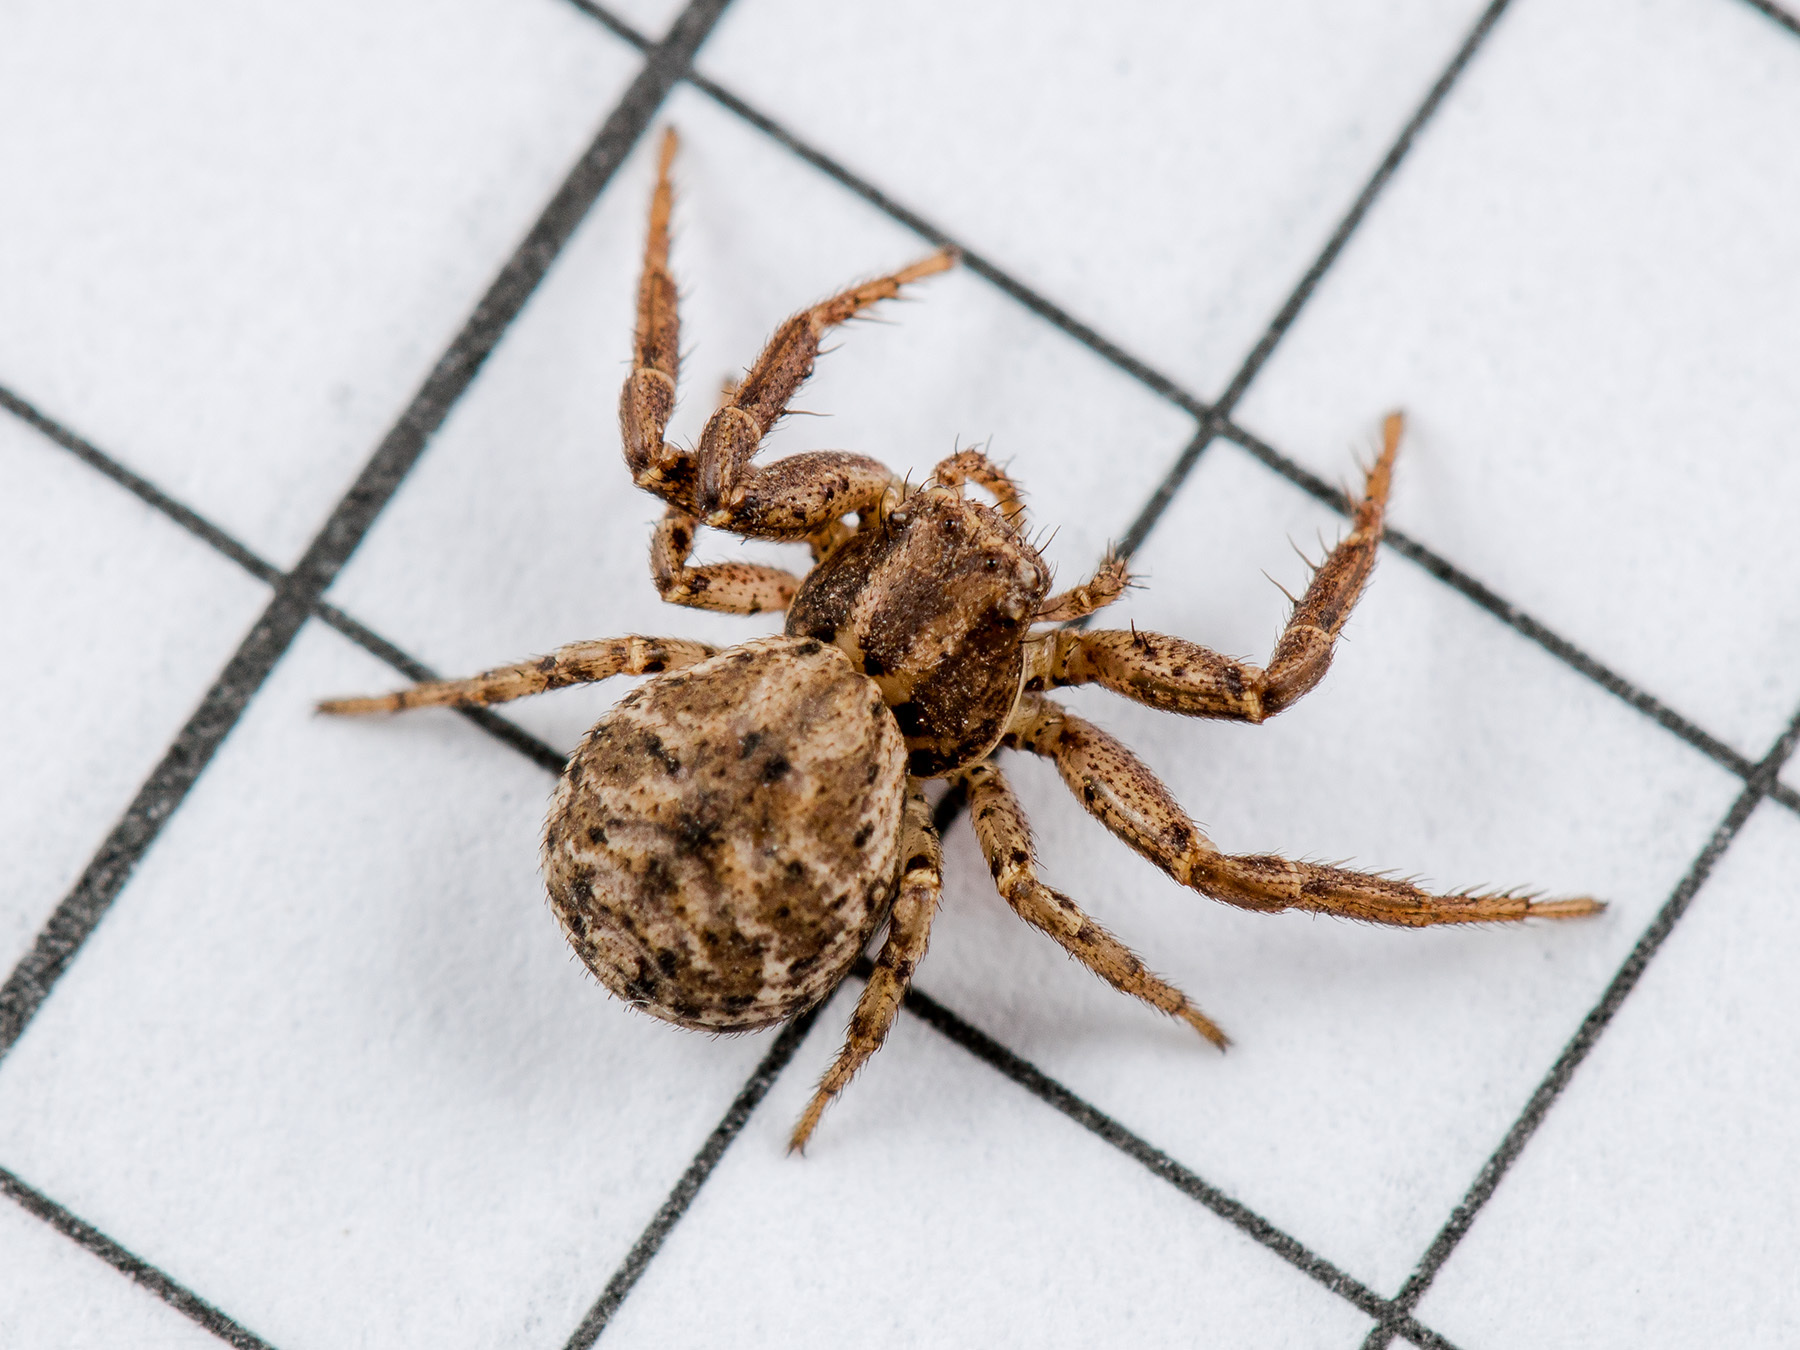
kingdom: Animalia
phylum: Arthropoda
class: Arachnida
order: Araneae
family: Thomisidae
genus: Psammitis
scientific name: Psammitis xysticiformis
